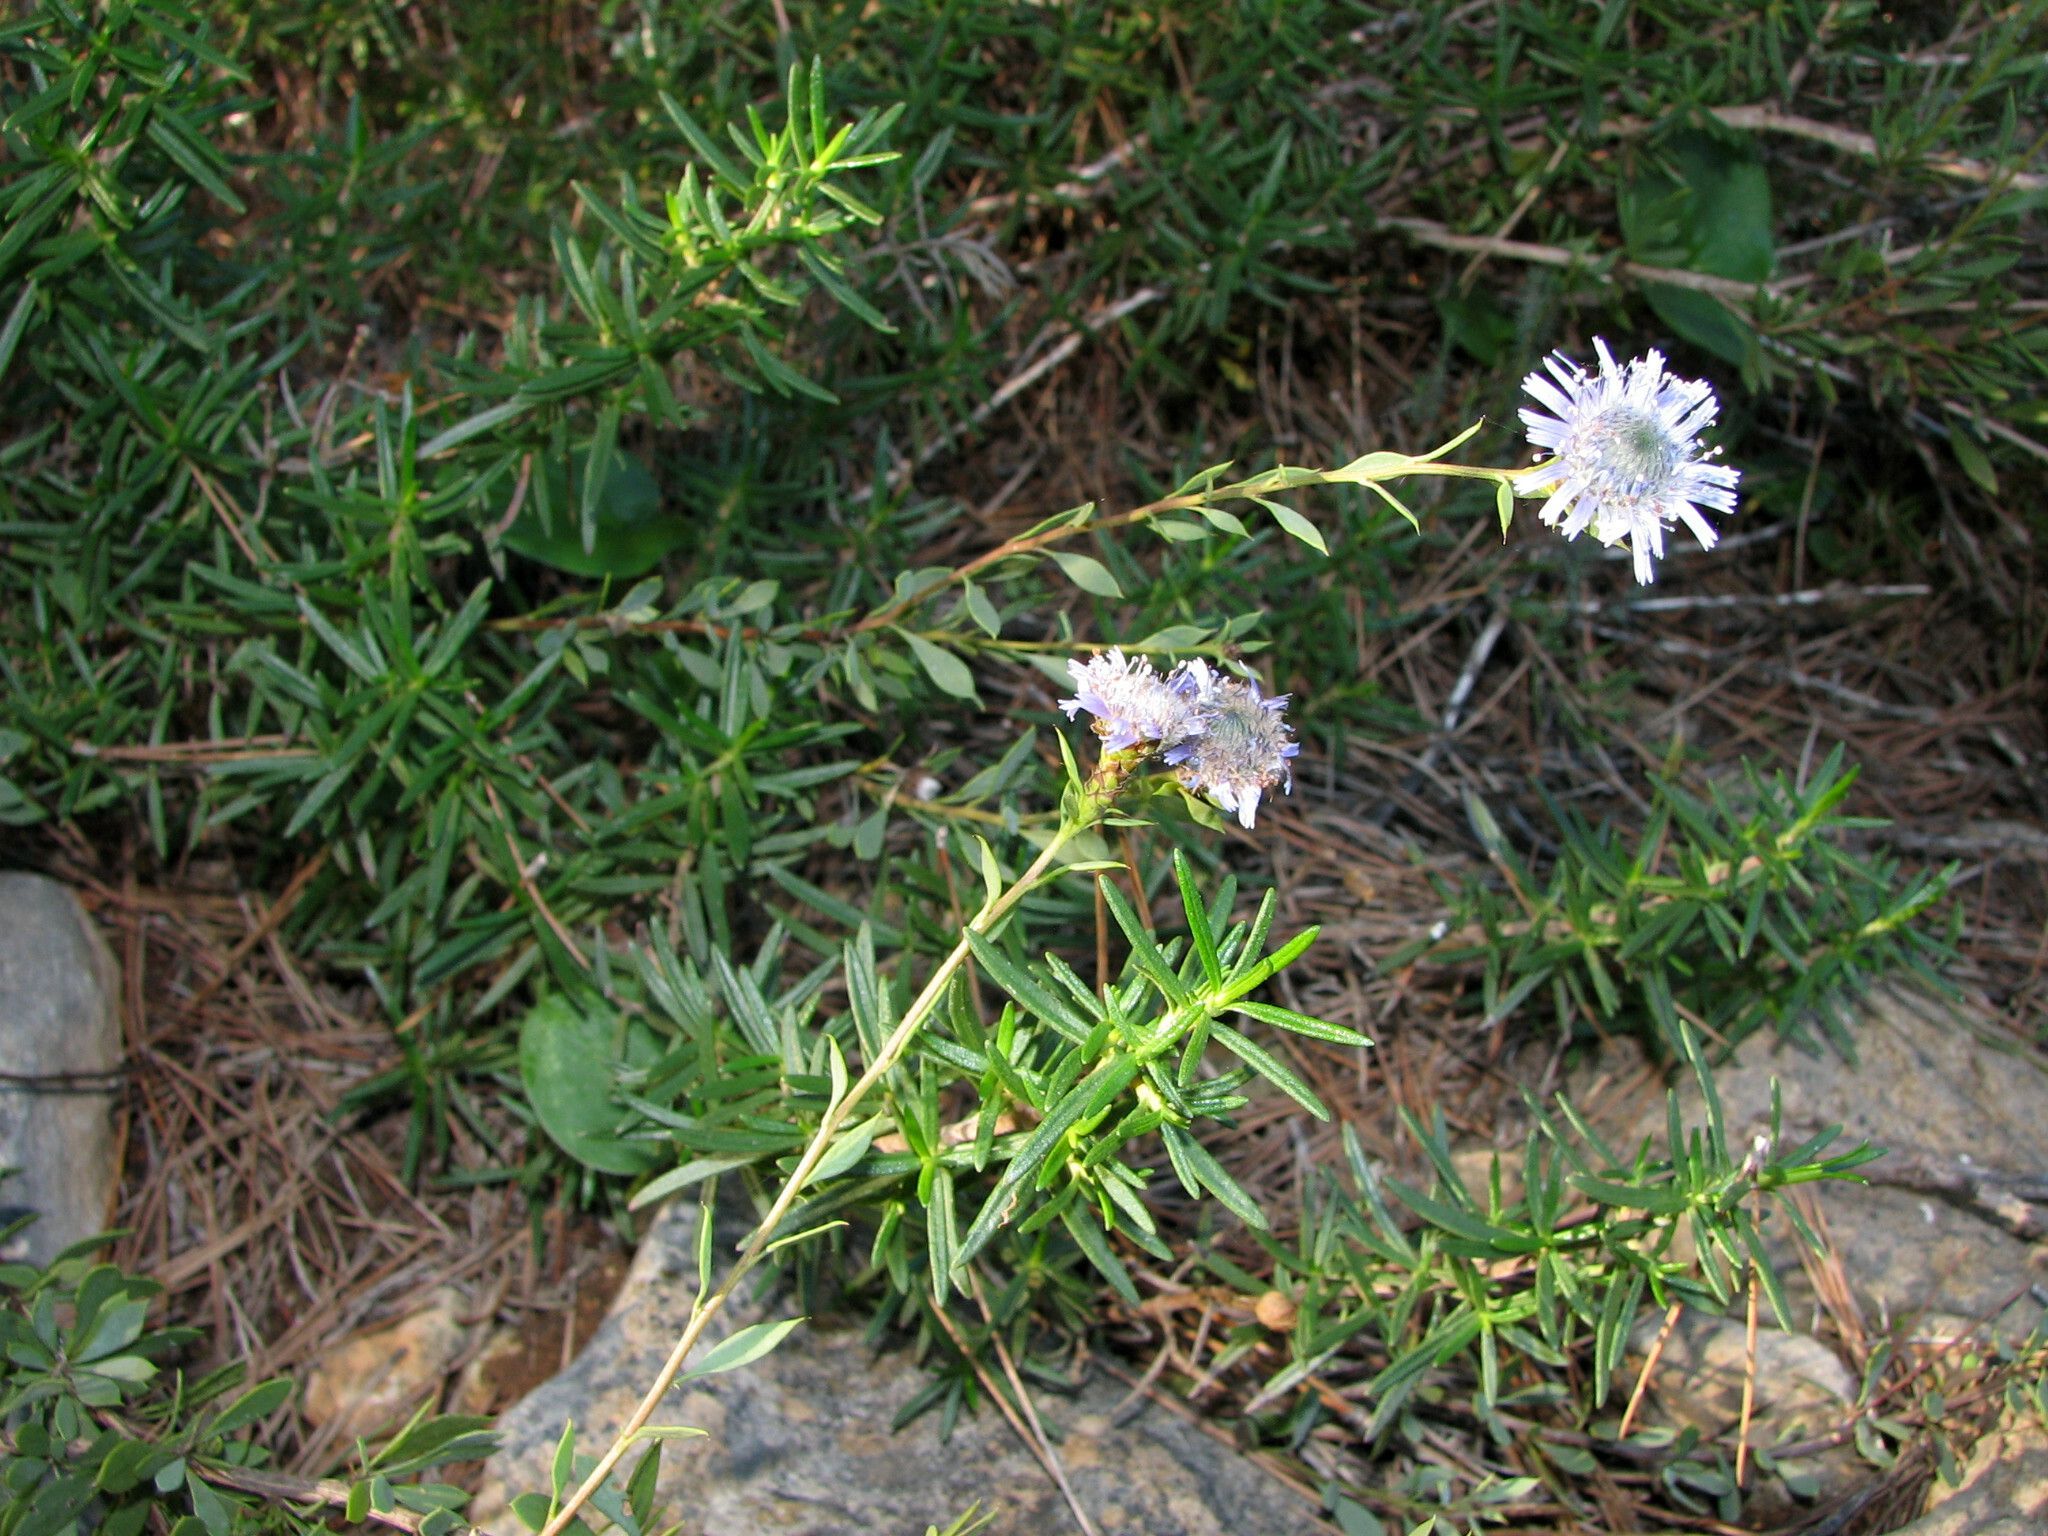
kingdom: Plantae
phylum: Tracheophyta
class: Magnoliopsida
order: Lamiales
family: Plantaginaceae
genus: Globularia
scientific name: Globularia alypum
